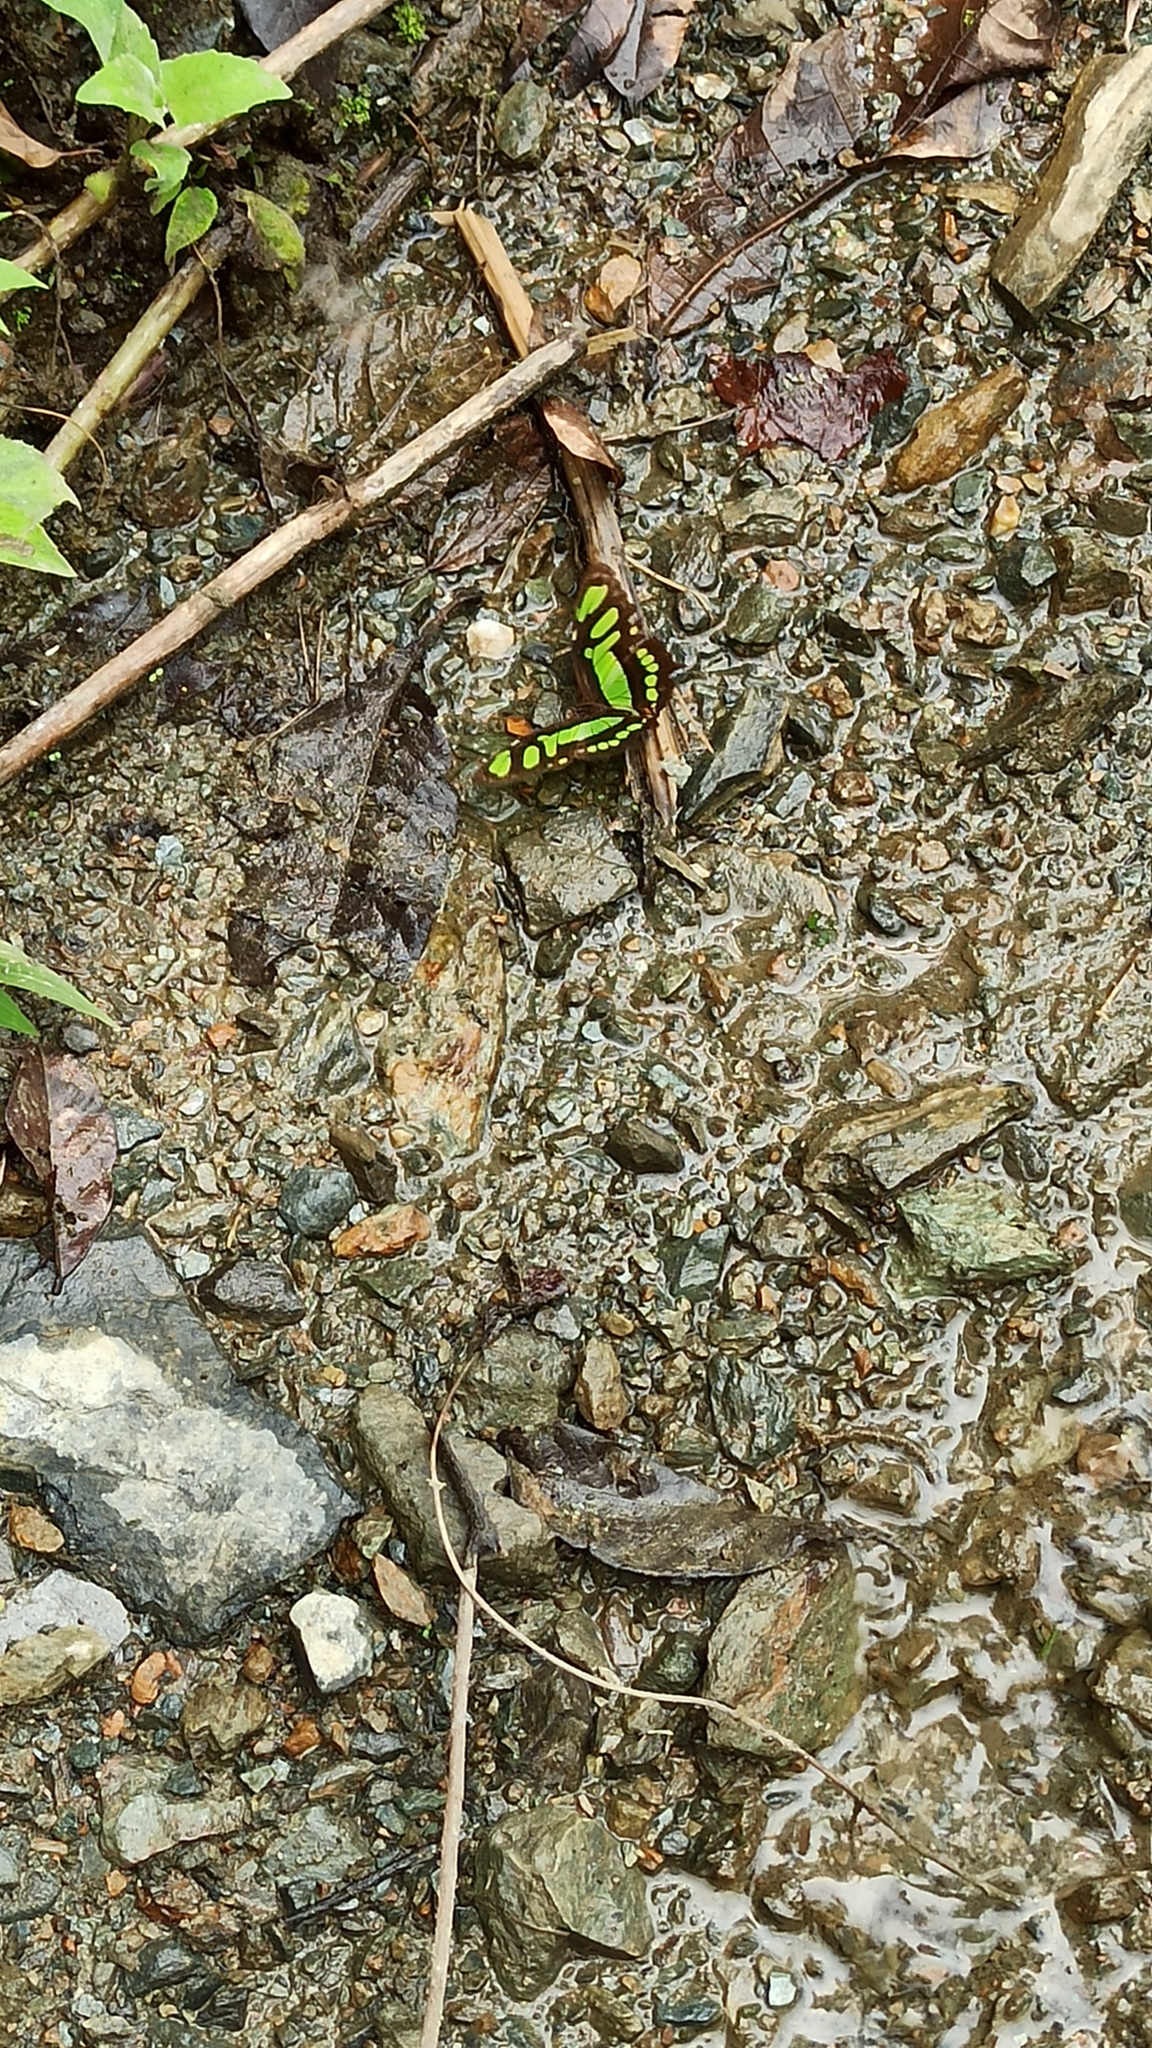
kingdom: Animalia
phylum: Arthropoda
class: Insecta
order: Lepidoptera
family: Nymphalidae
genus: Siproeta
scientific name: Siproeta stelenes
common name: Malachite
